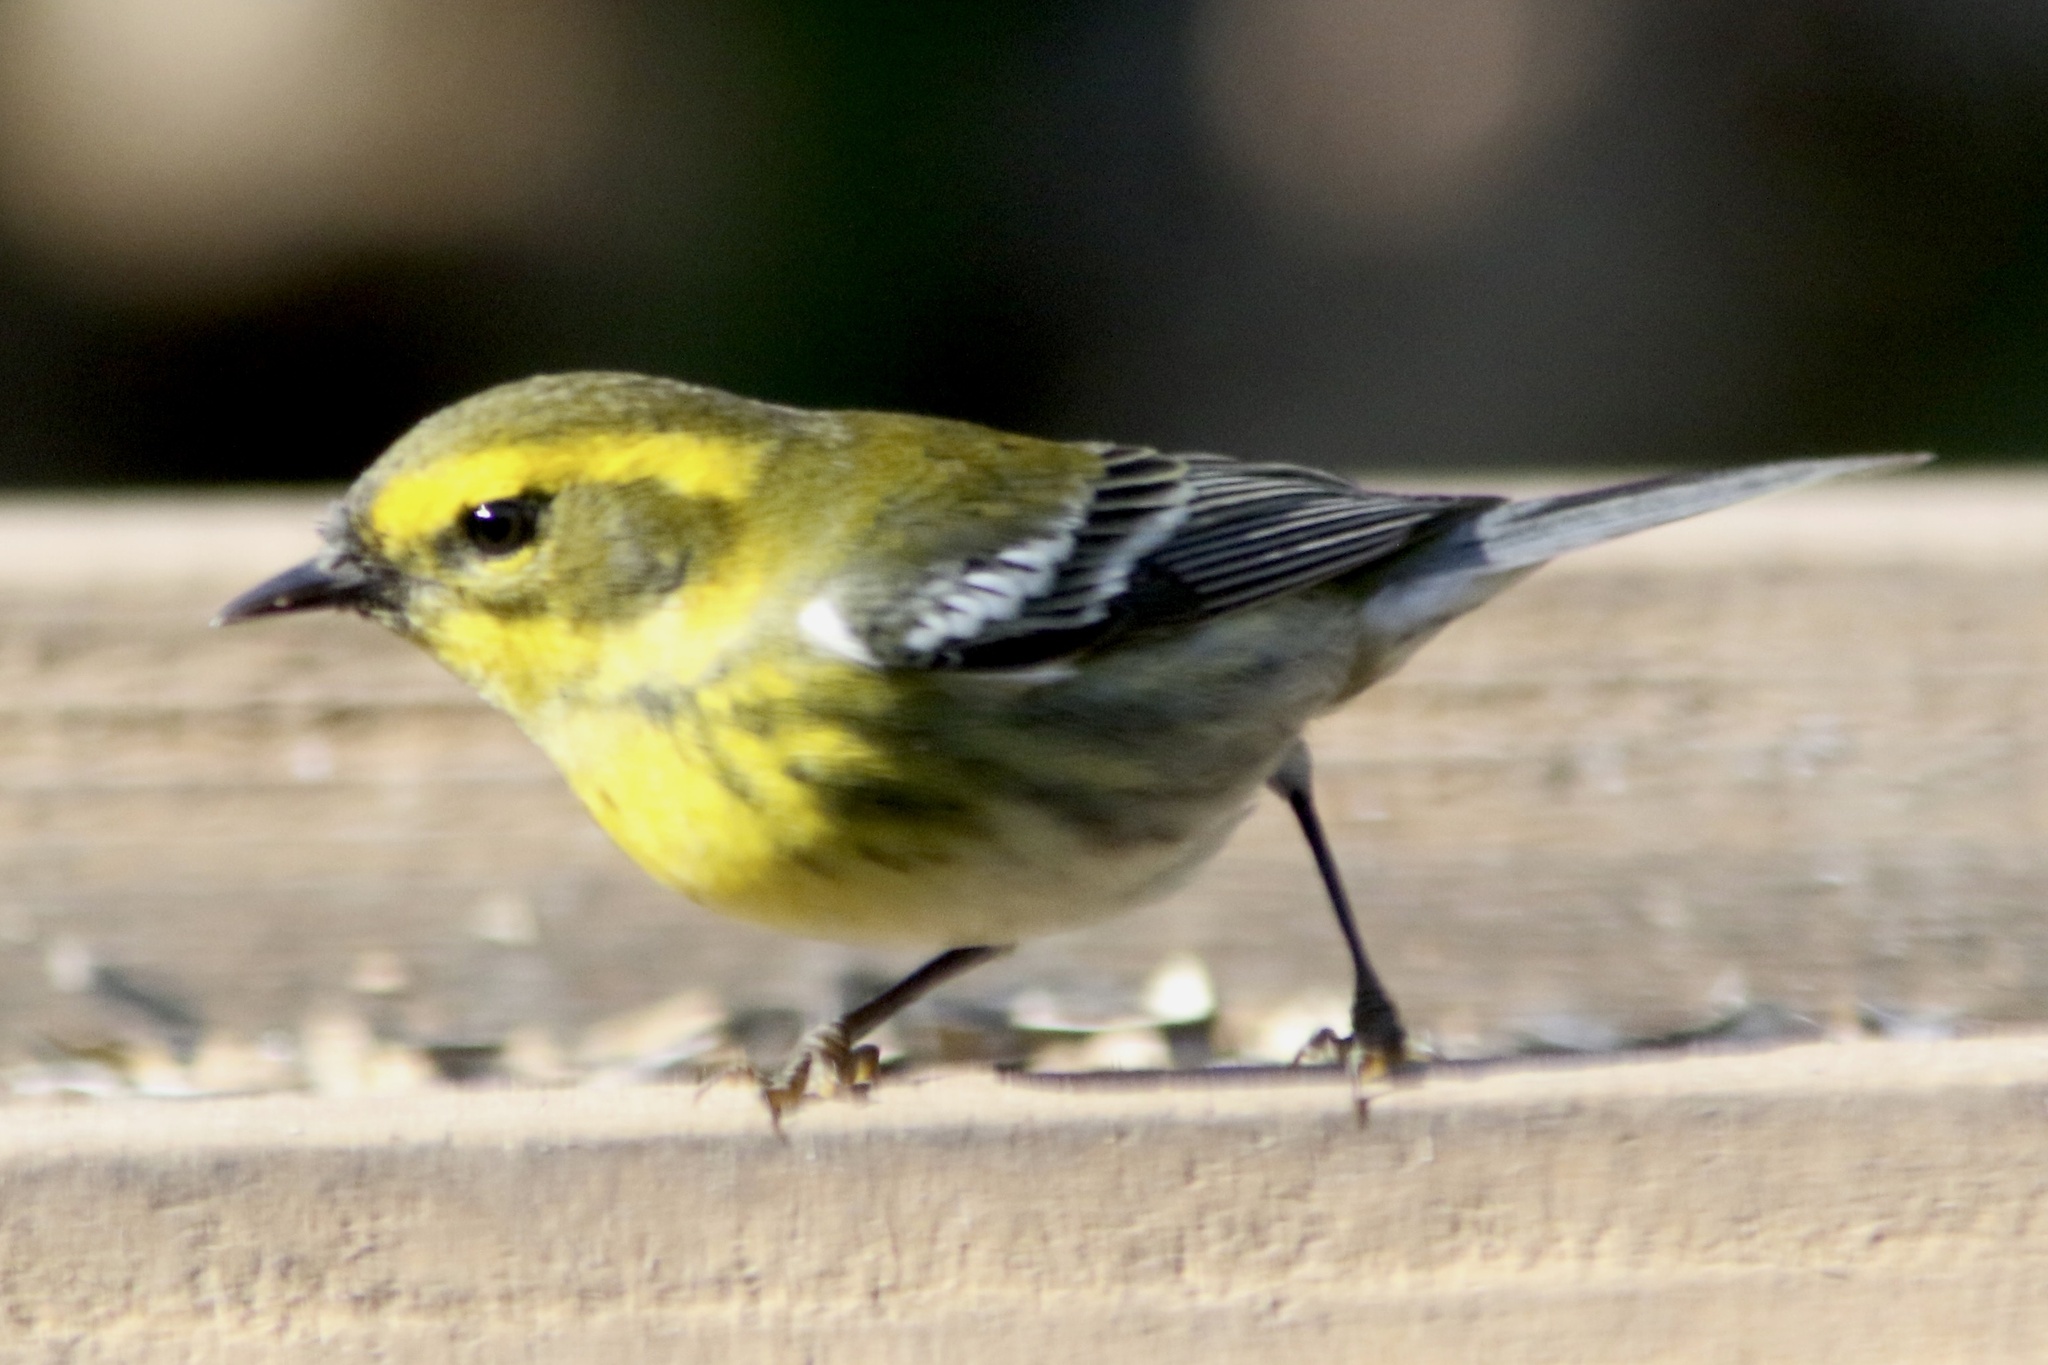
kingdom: Animalia
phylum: Chordata
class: Aves
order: Passeriformes
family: Parulidae
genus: Setophaga
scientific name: Setophaga townsendi
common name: Townsend's warbler
